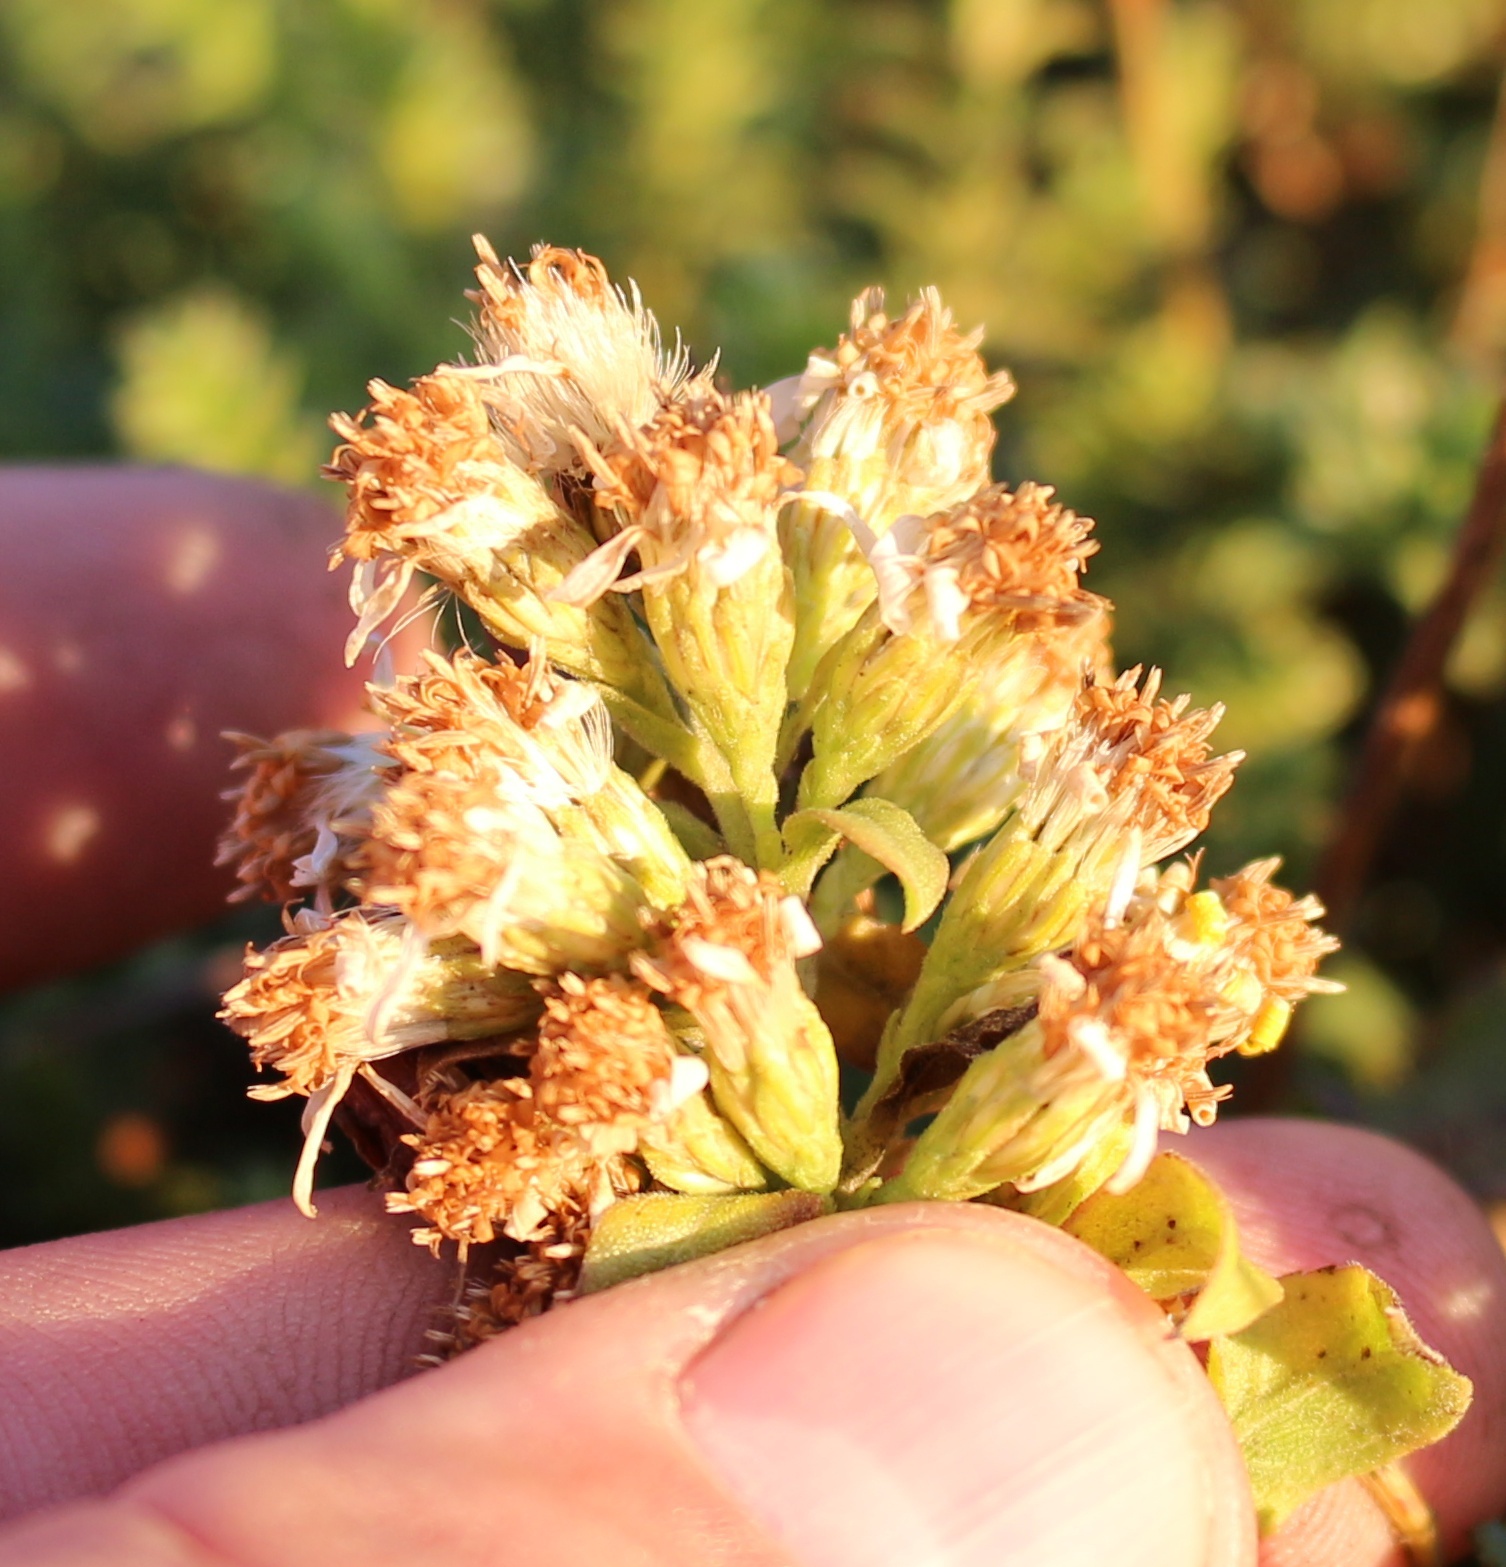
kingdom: Plantae
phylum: Tracheophyta
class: Magnoliopsida
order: Asterales
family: Asteraceae
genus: Solidago
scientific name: Solidago virgaurea
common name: Goldenrod
